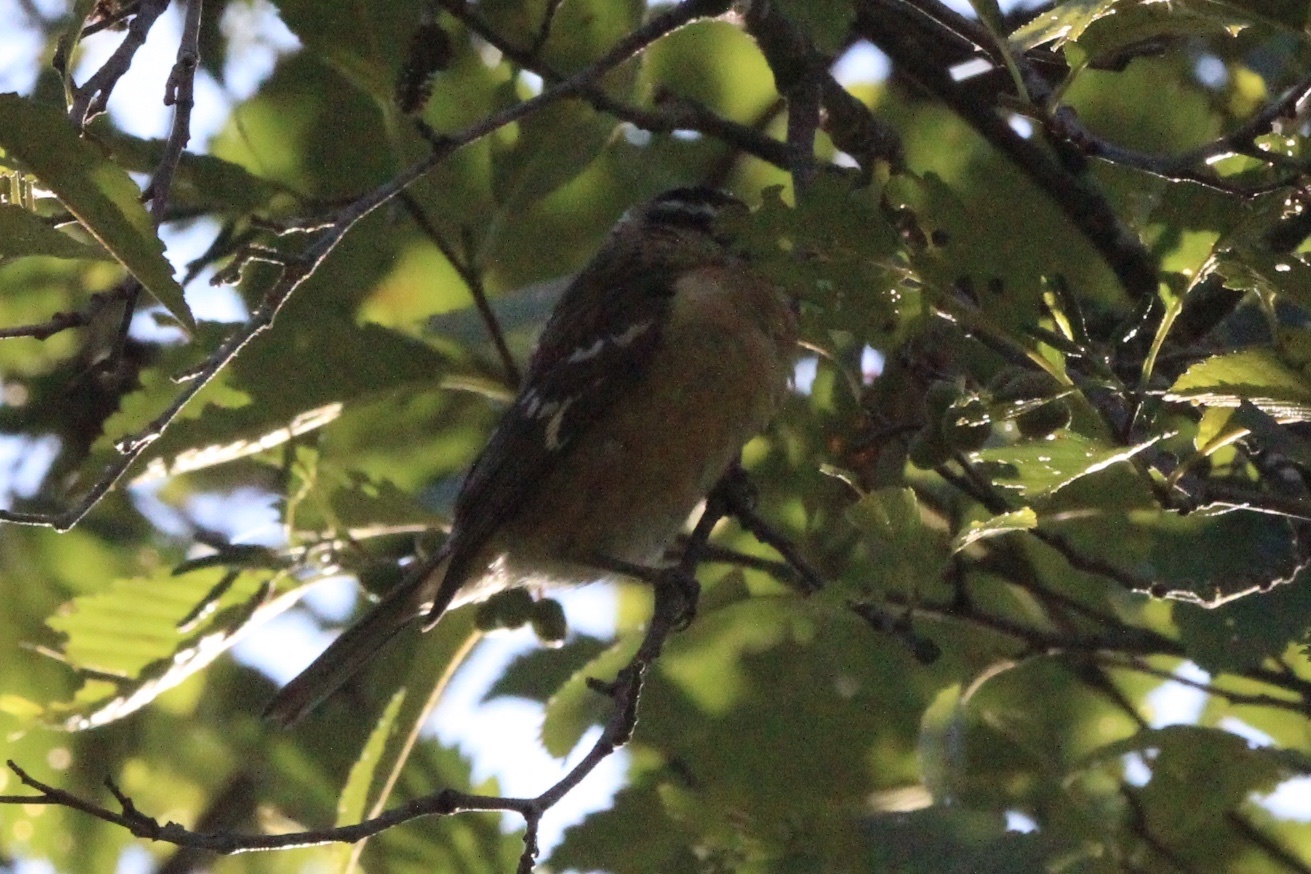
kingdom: Animalia
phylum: Chordata
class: Aves
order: Passeriformes
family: Cardinalidae
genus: Pheucticus
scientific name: Pheucticus melanocephalus
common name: Black-headed grosbeak
